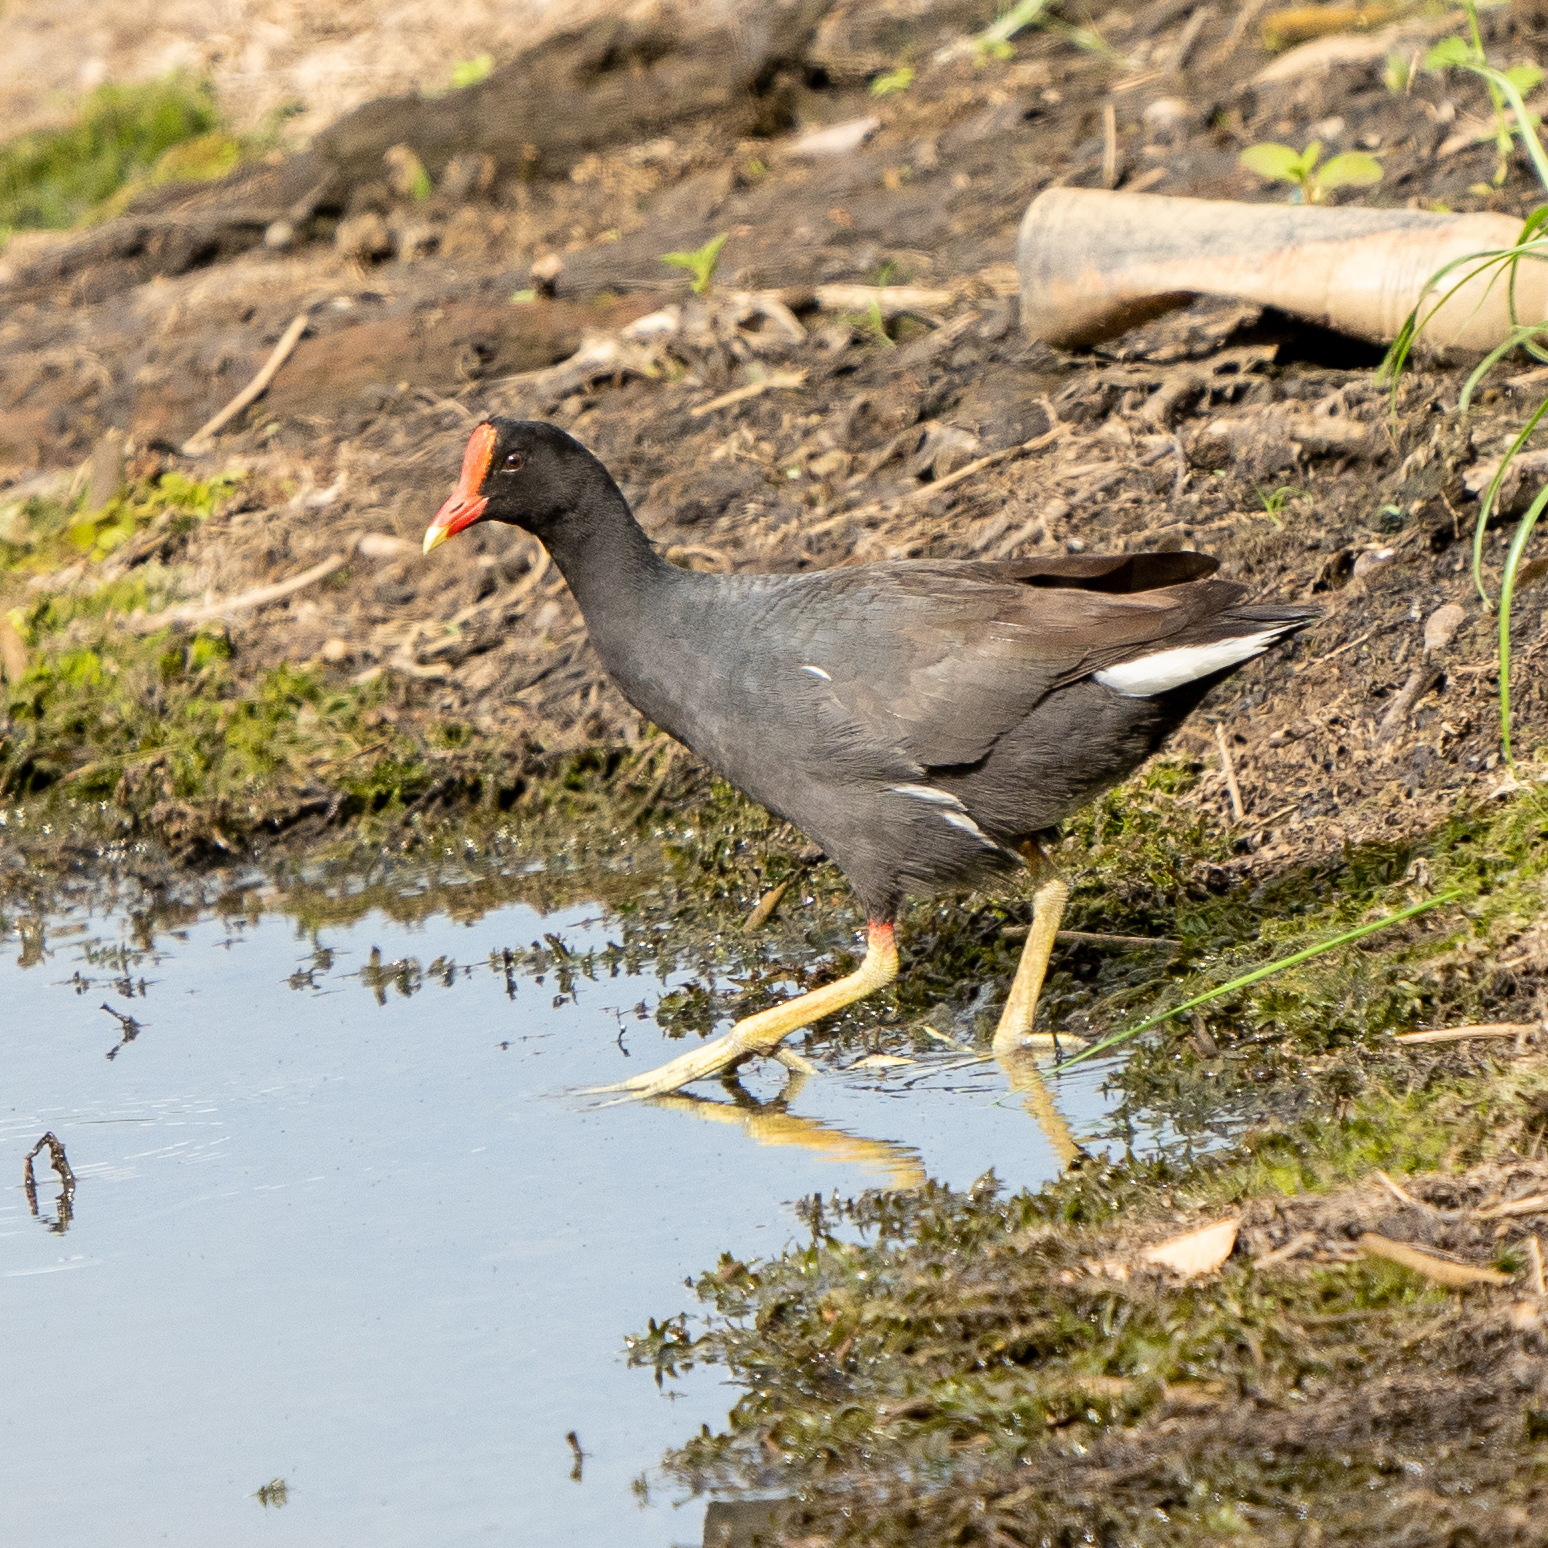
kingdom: Animalia
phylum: Chordata
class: Aves
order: Gruiformes
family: Rallidae
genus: Gallinula
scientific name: Gallinula chloropus
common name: Common moorhen
